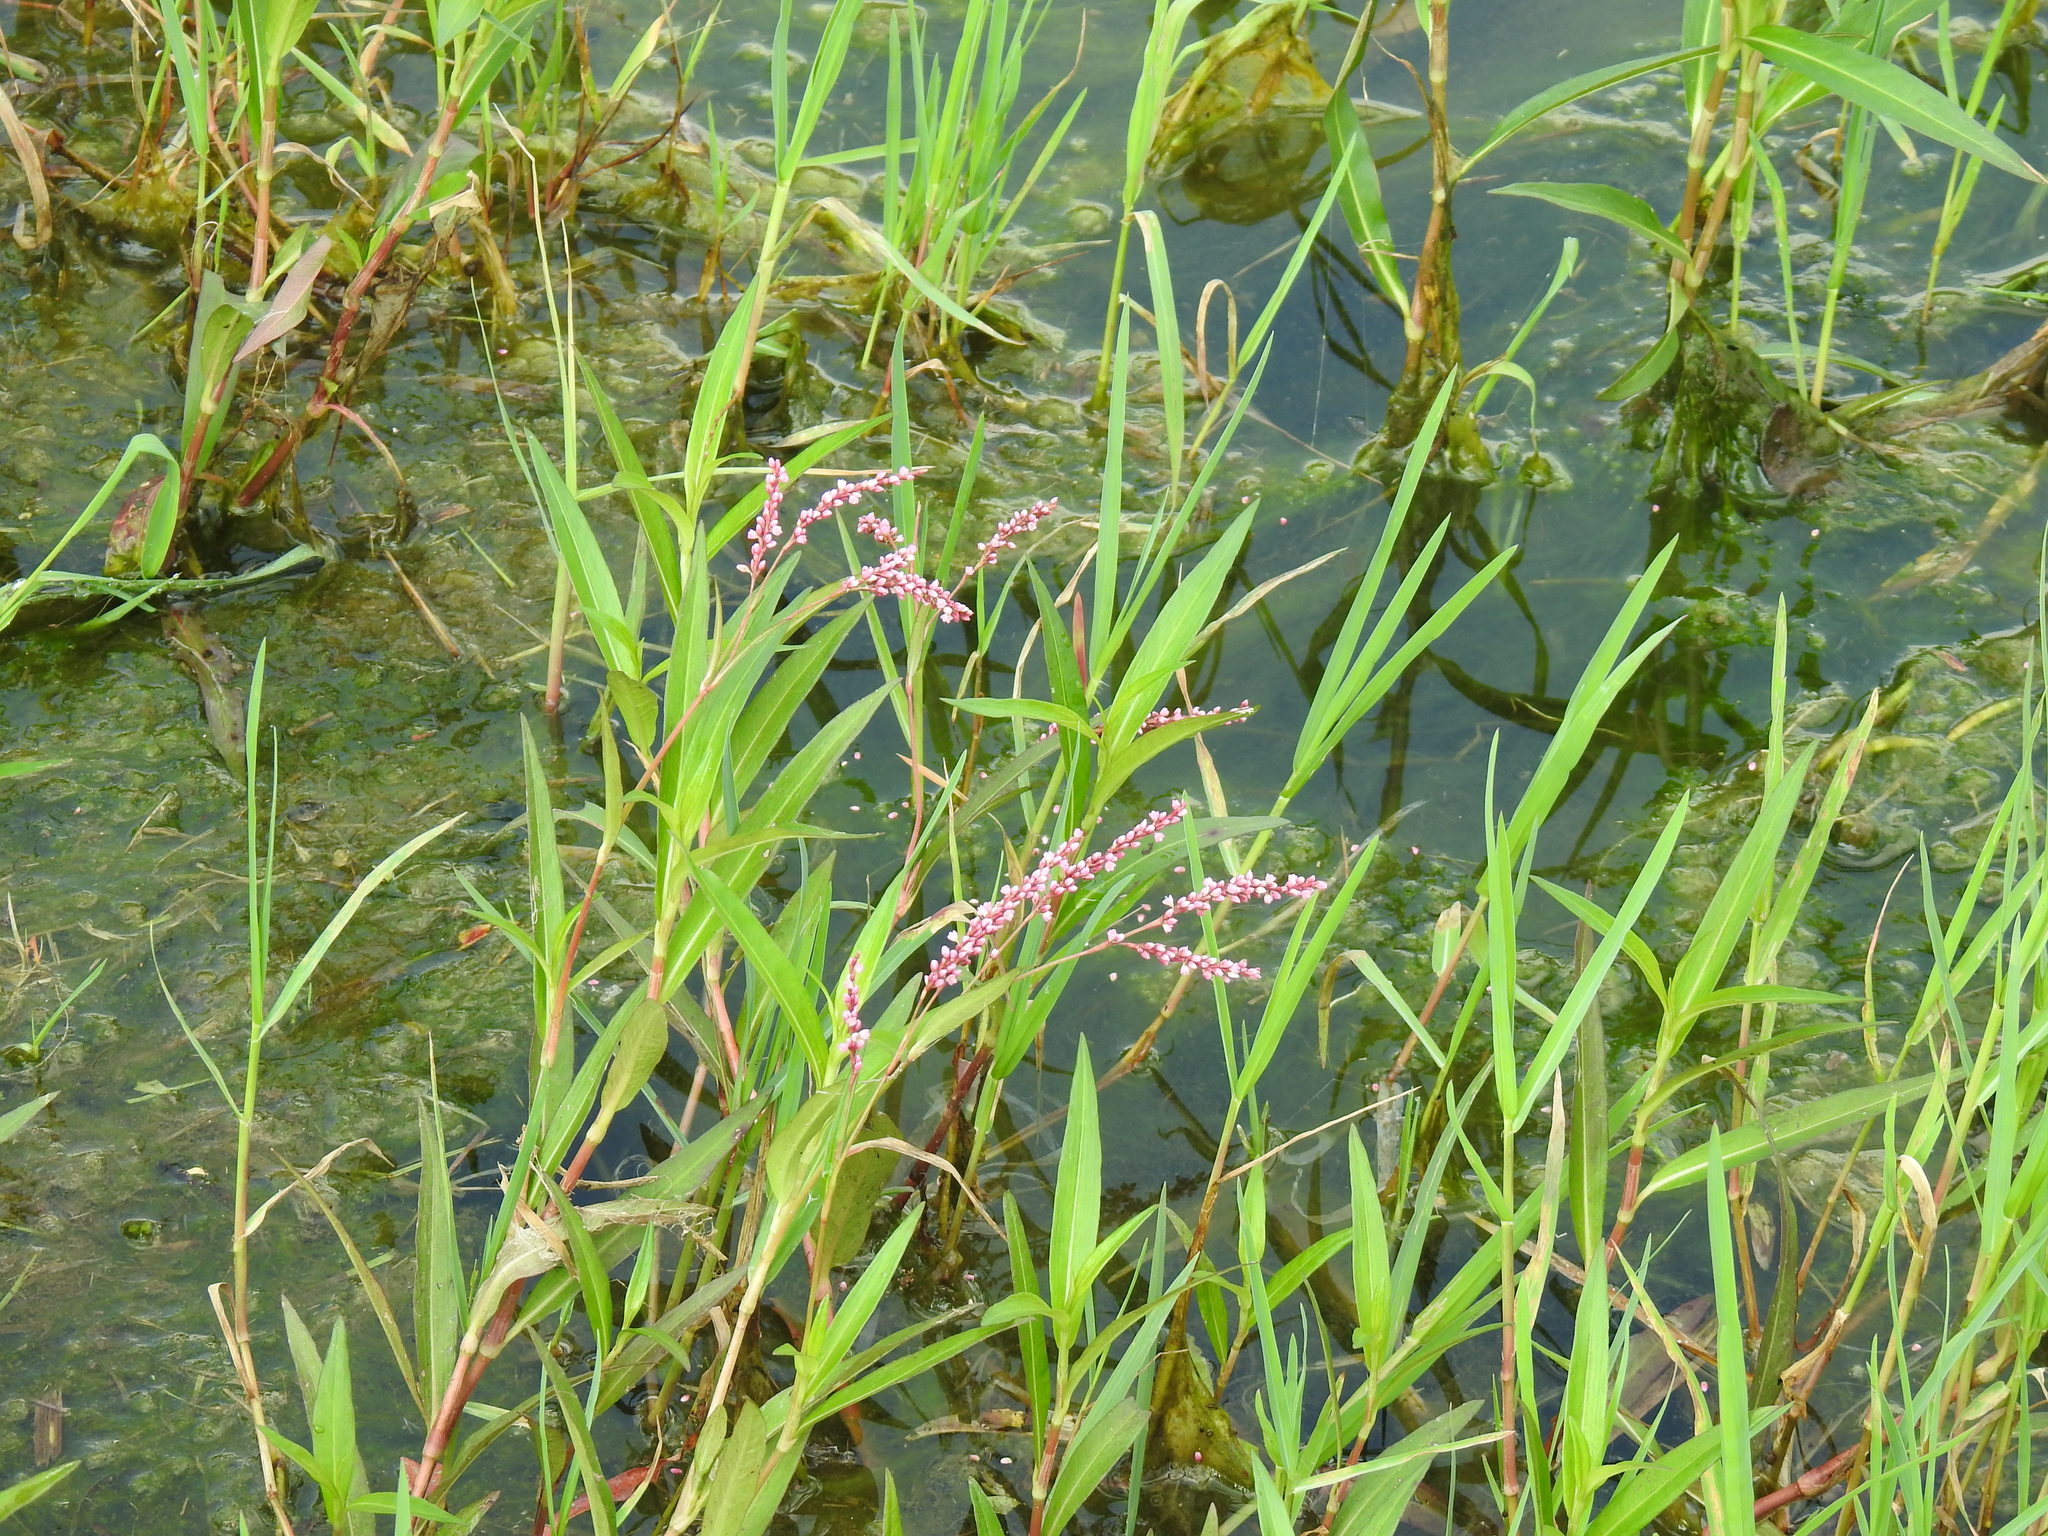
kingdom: Plantae
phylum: Tracheophyta
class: Magnoliopsida
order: Caryophyllales
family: Polygonaceae
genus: Persicaria
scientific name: Persicaria decipiens
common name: Willow-weed
